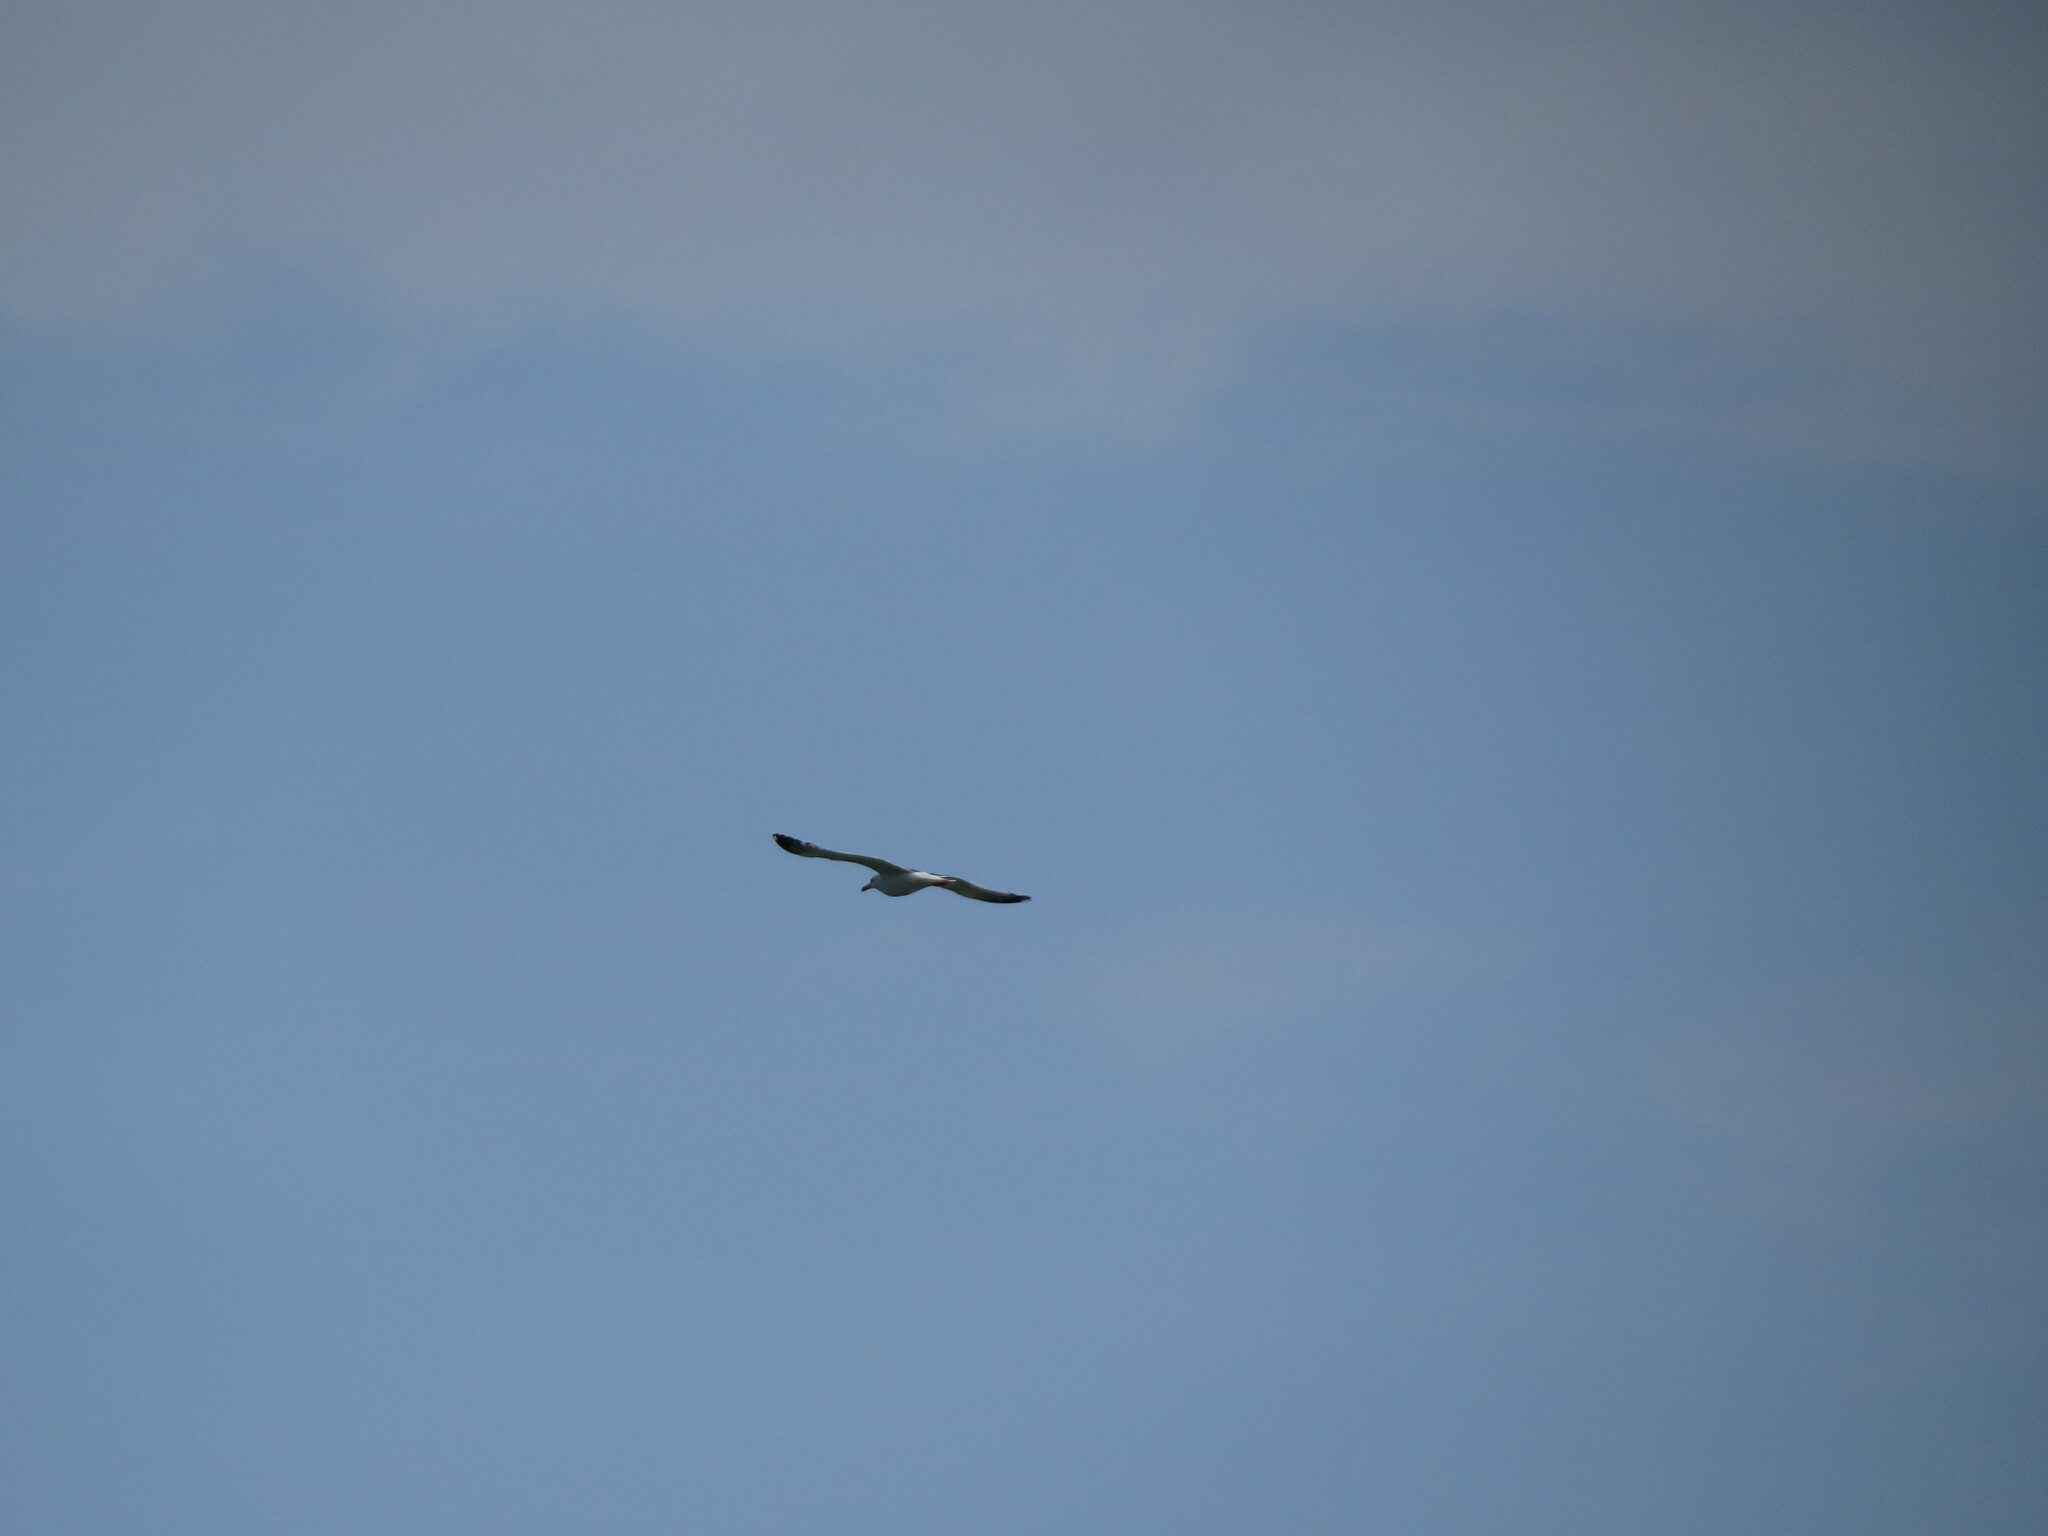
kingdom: Animalia
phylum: Chordata
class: Aves
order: Charadriiformes
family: Laridae
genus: Larus
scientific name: Larus fuscus
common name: Lesser black-backed gull
